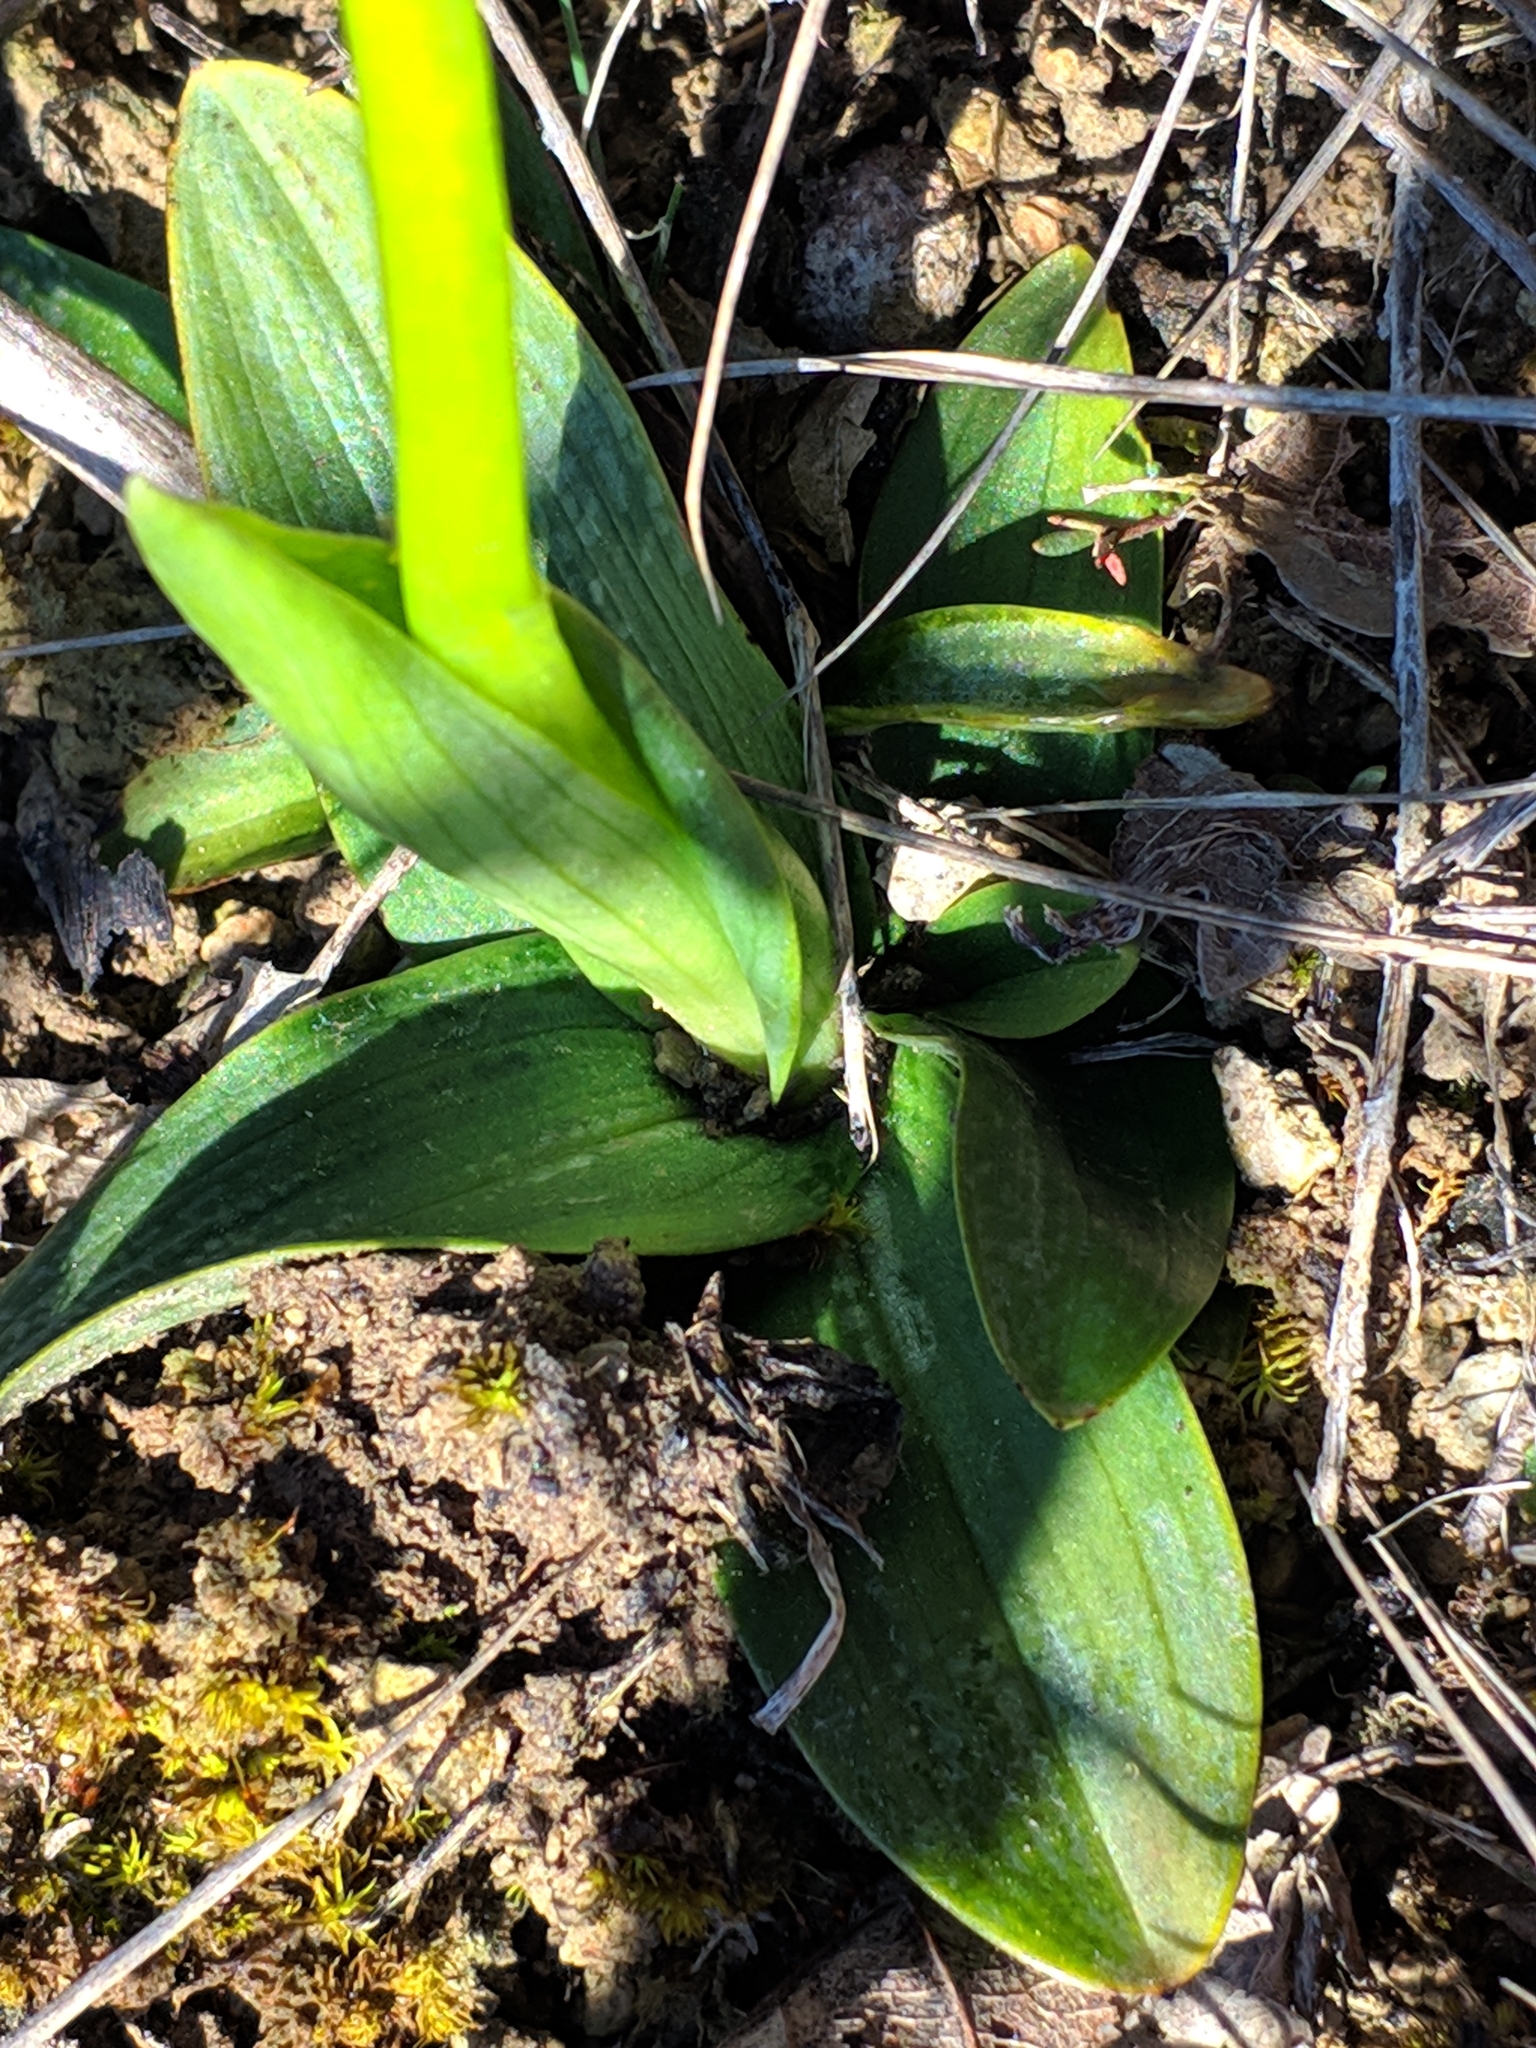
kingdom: Plantae
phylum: Tracheophyta
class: Liliopsida
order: Asparagales
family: Orchidaceae
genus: Ophrys
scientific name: Ophrys fusca
